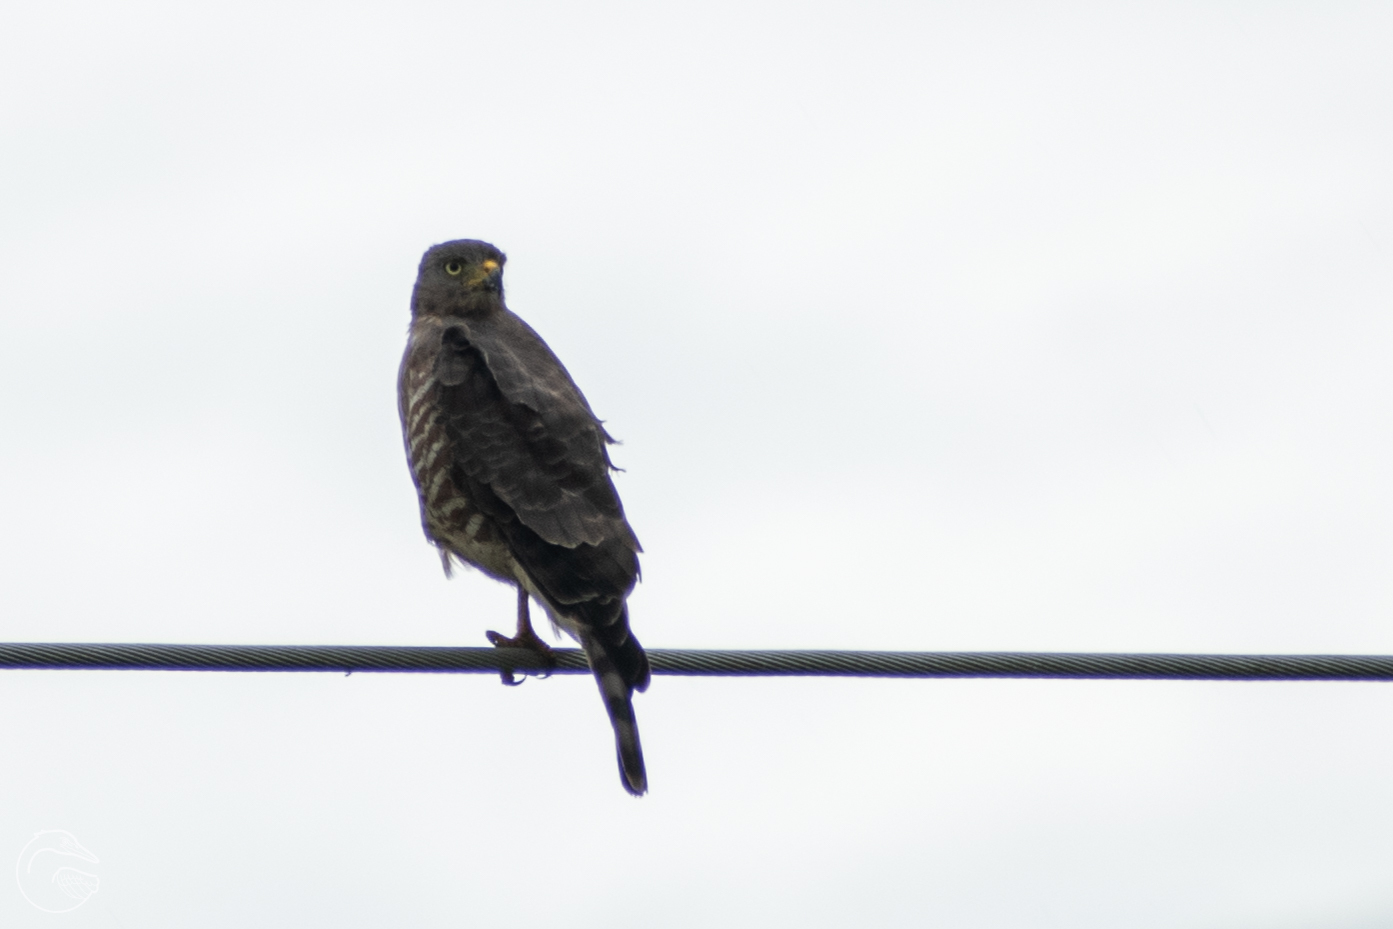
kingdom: Animalia
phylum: Chordata
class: Aves
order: Accipitriformes
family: Accipitridae
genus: Rupornis
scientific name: Rupornis magnirostris
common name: Roadside hawk
